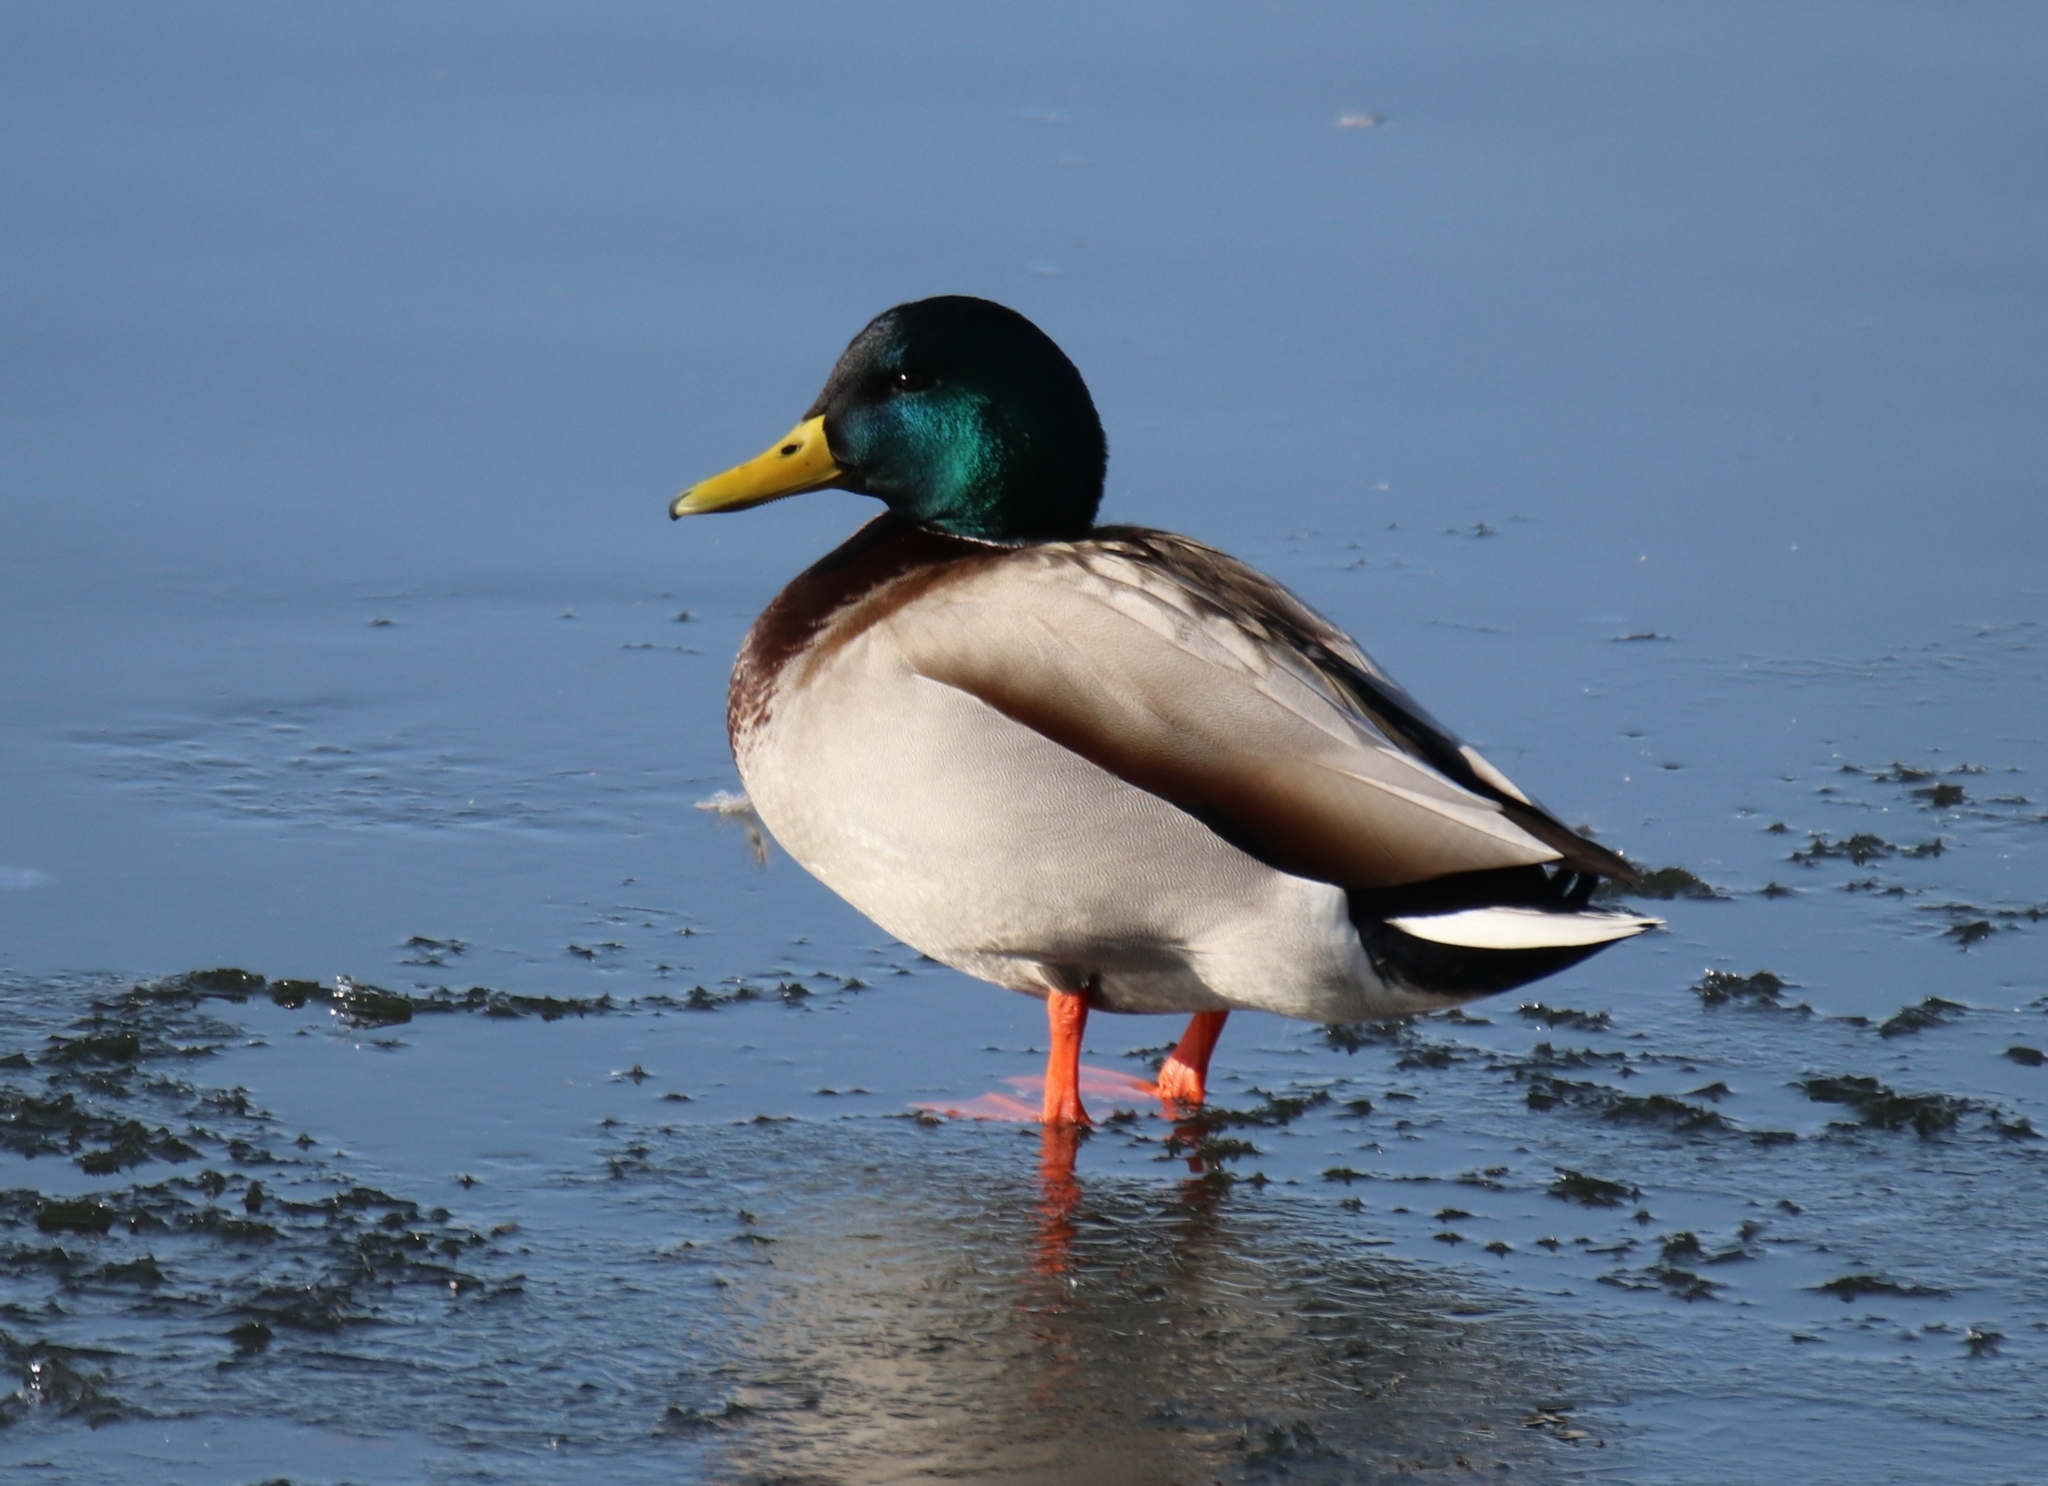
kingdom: Animalia
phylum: Chordata
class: Aves
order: Anseriformes
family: Anatidae
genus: Anas
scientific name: Anas platyrhynchos
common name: Mallard
